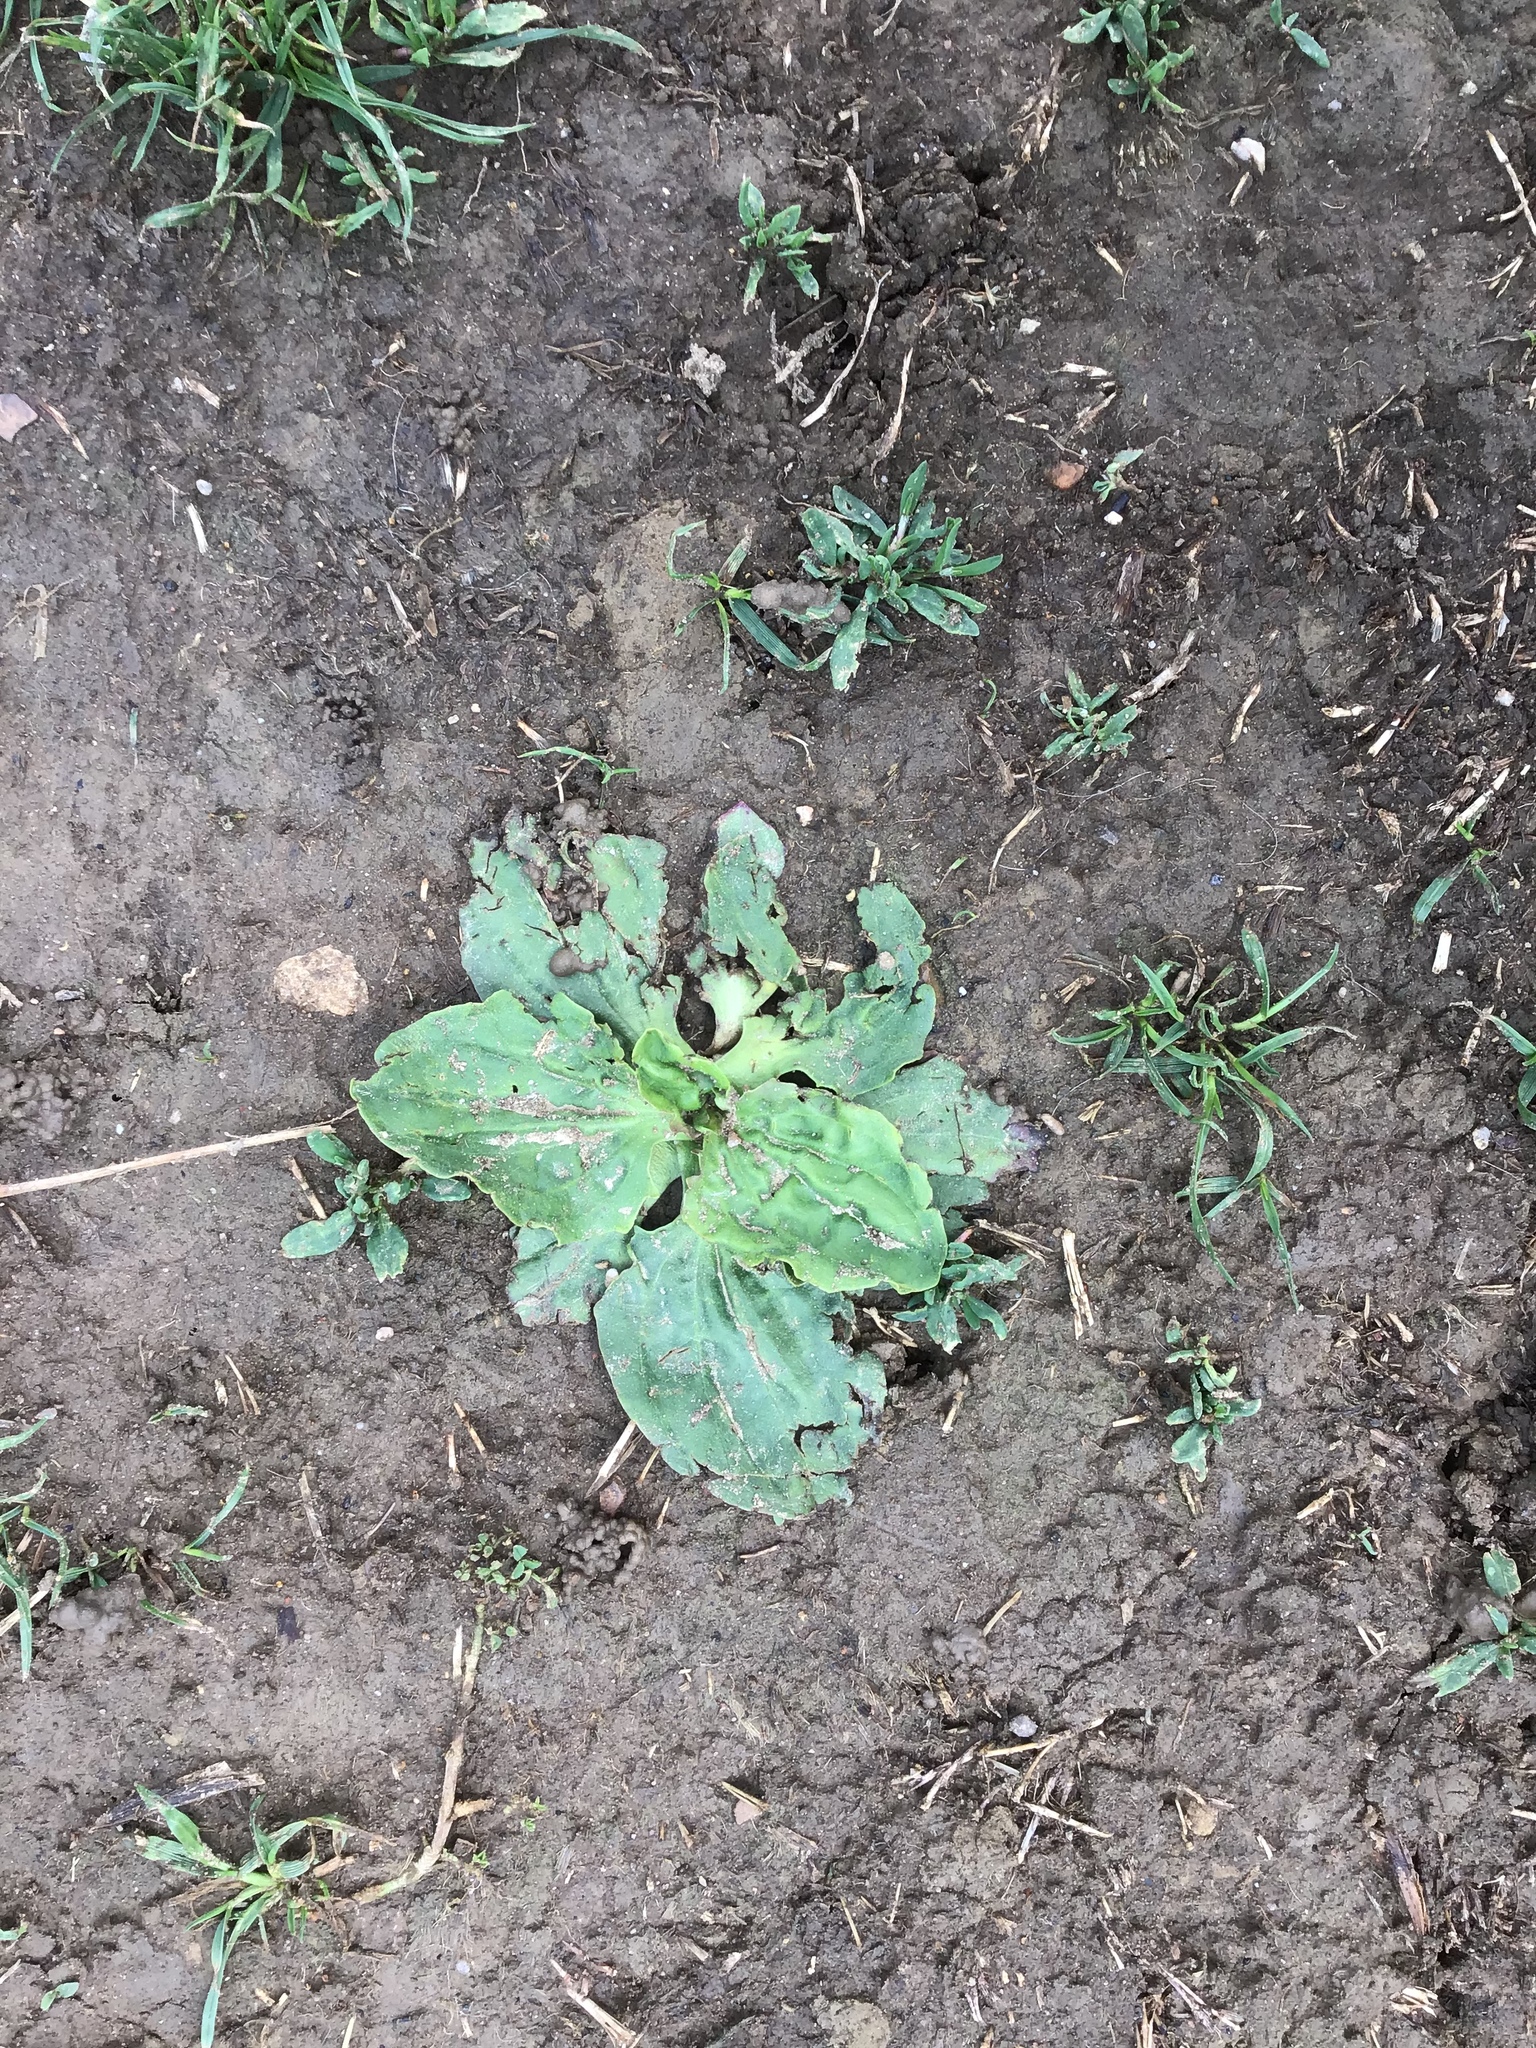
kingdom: Plantae
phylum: Tracheophyta
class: Magnoliopsida
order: Lamiales
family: Plantaginaceae
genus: Plantago
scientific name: Plantago major
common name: Common plantain
